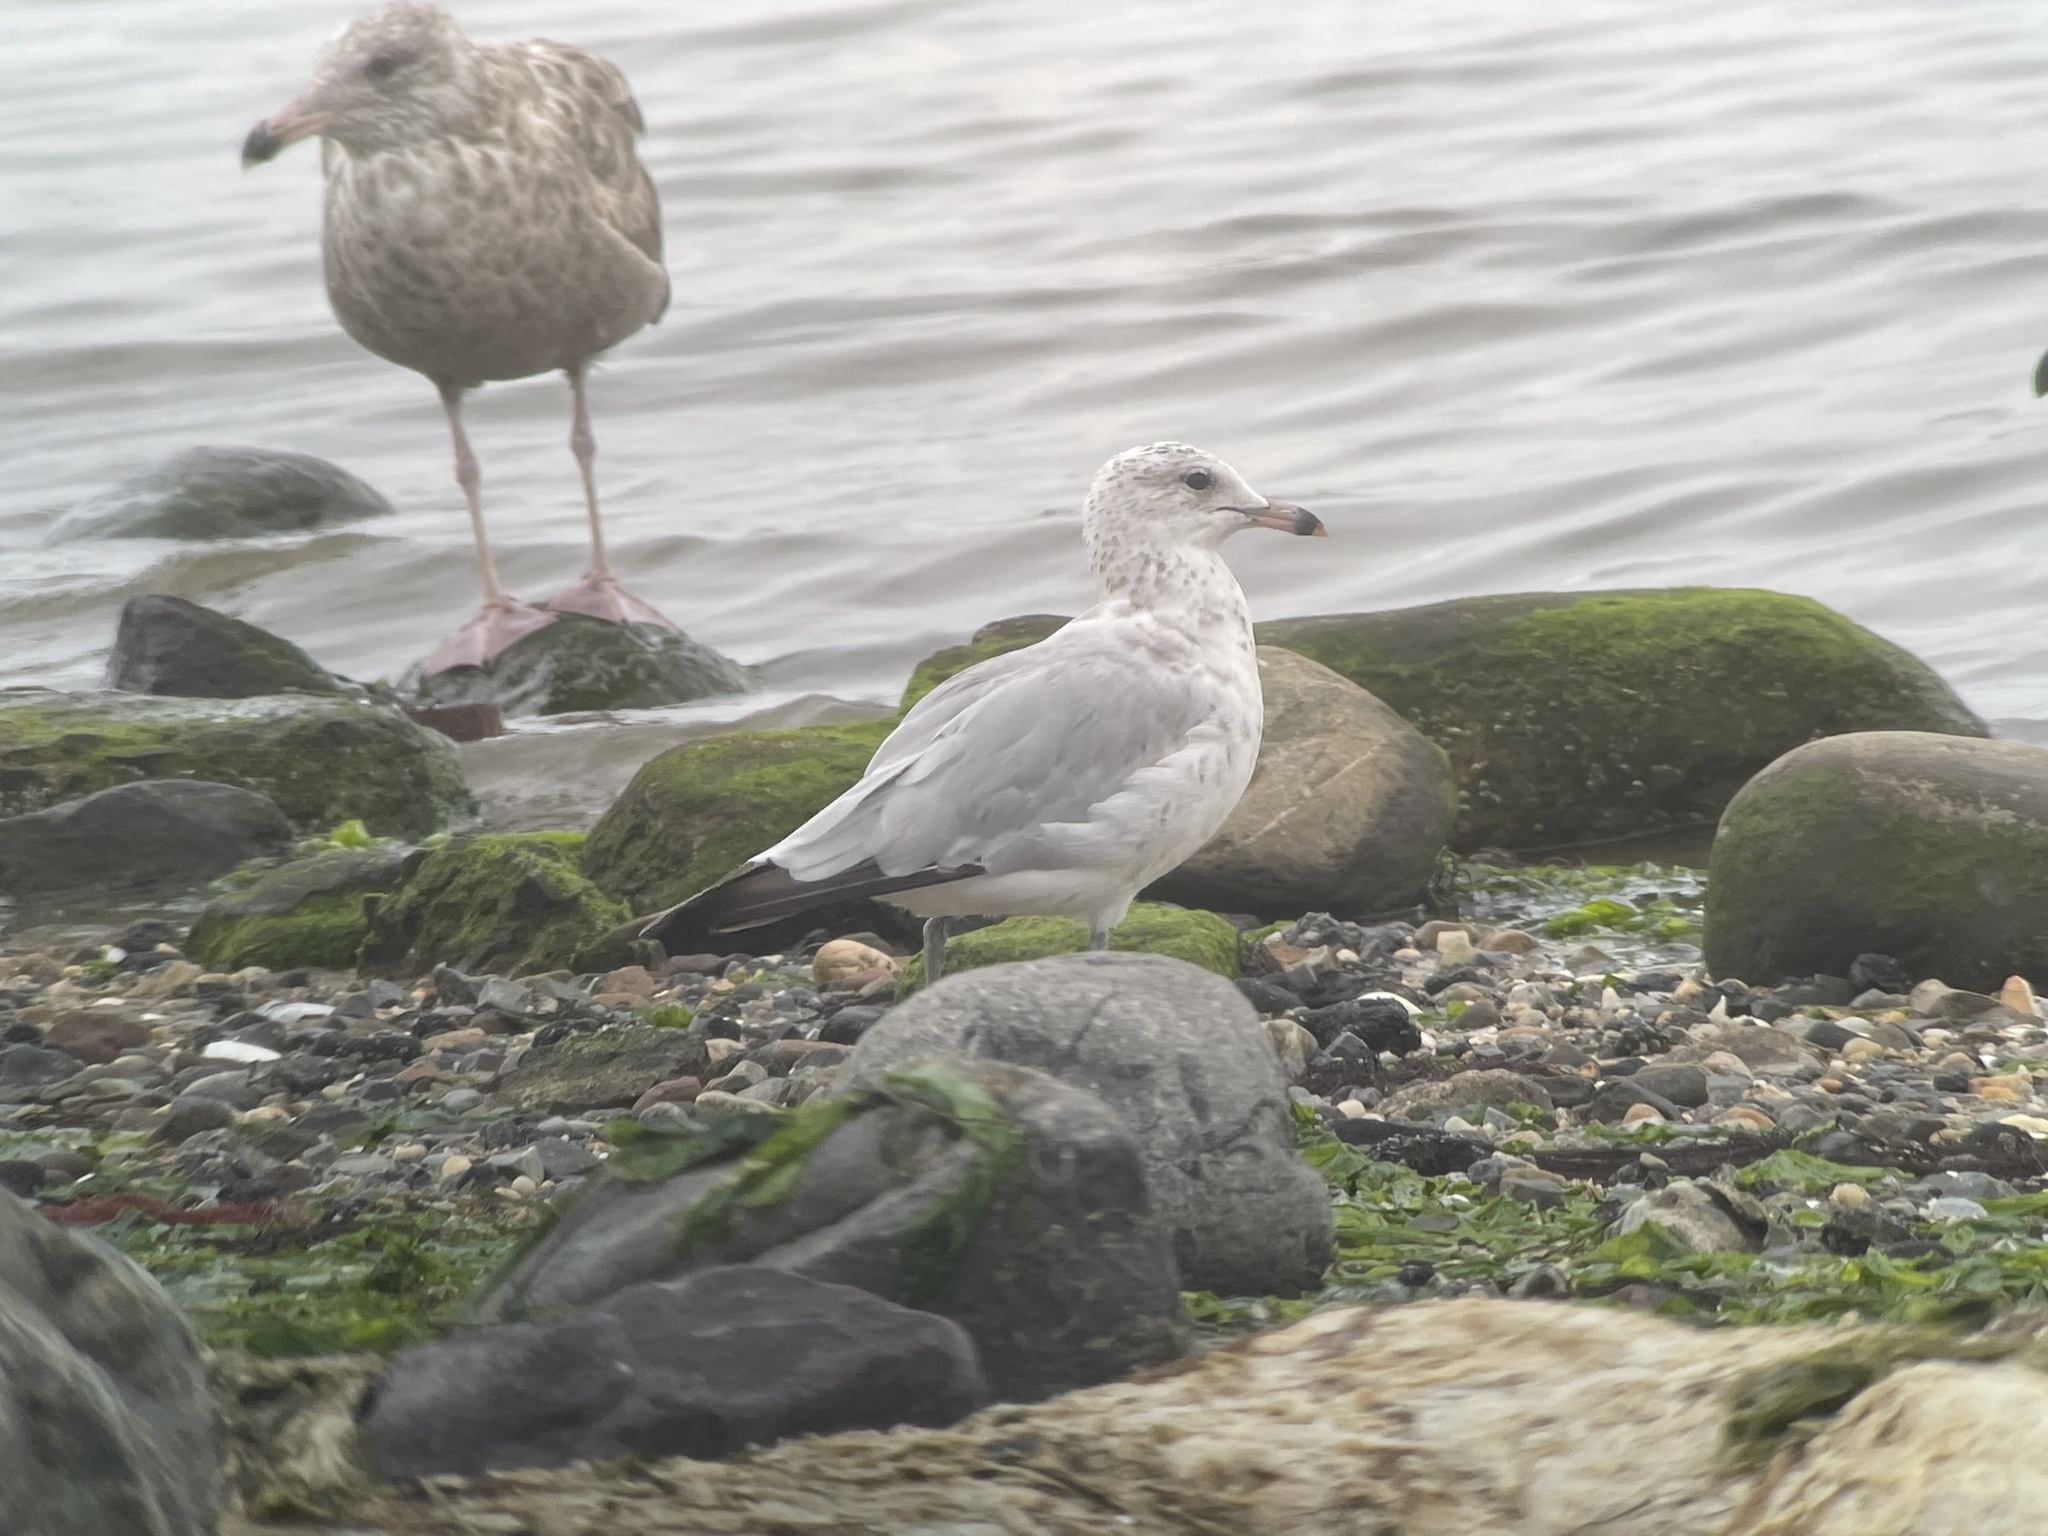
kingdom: Animalia
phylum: Chordata
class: Aves
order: Charadriiformes
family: Laridae
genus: Larus
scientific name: Larus delawarensis
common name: Ring-billed gull
